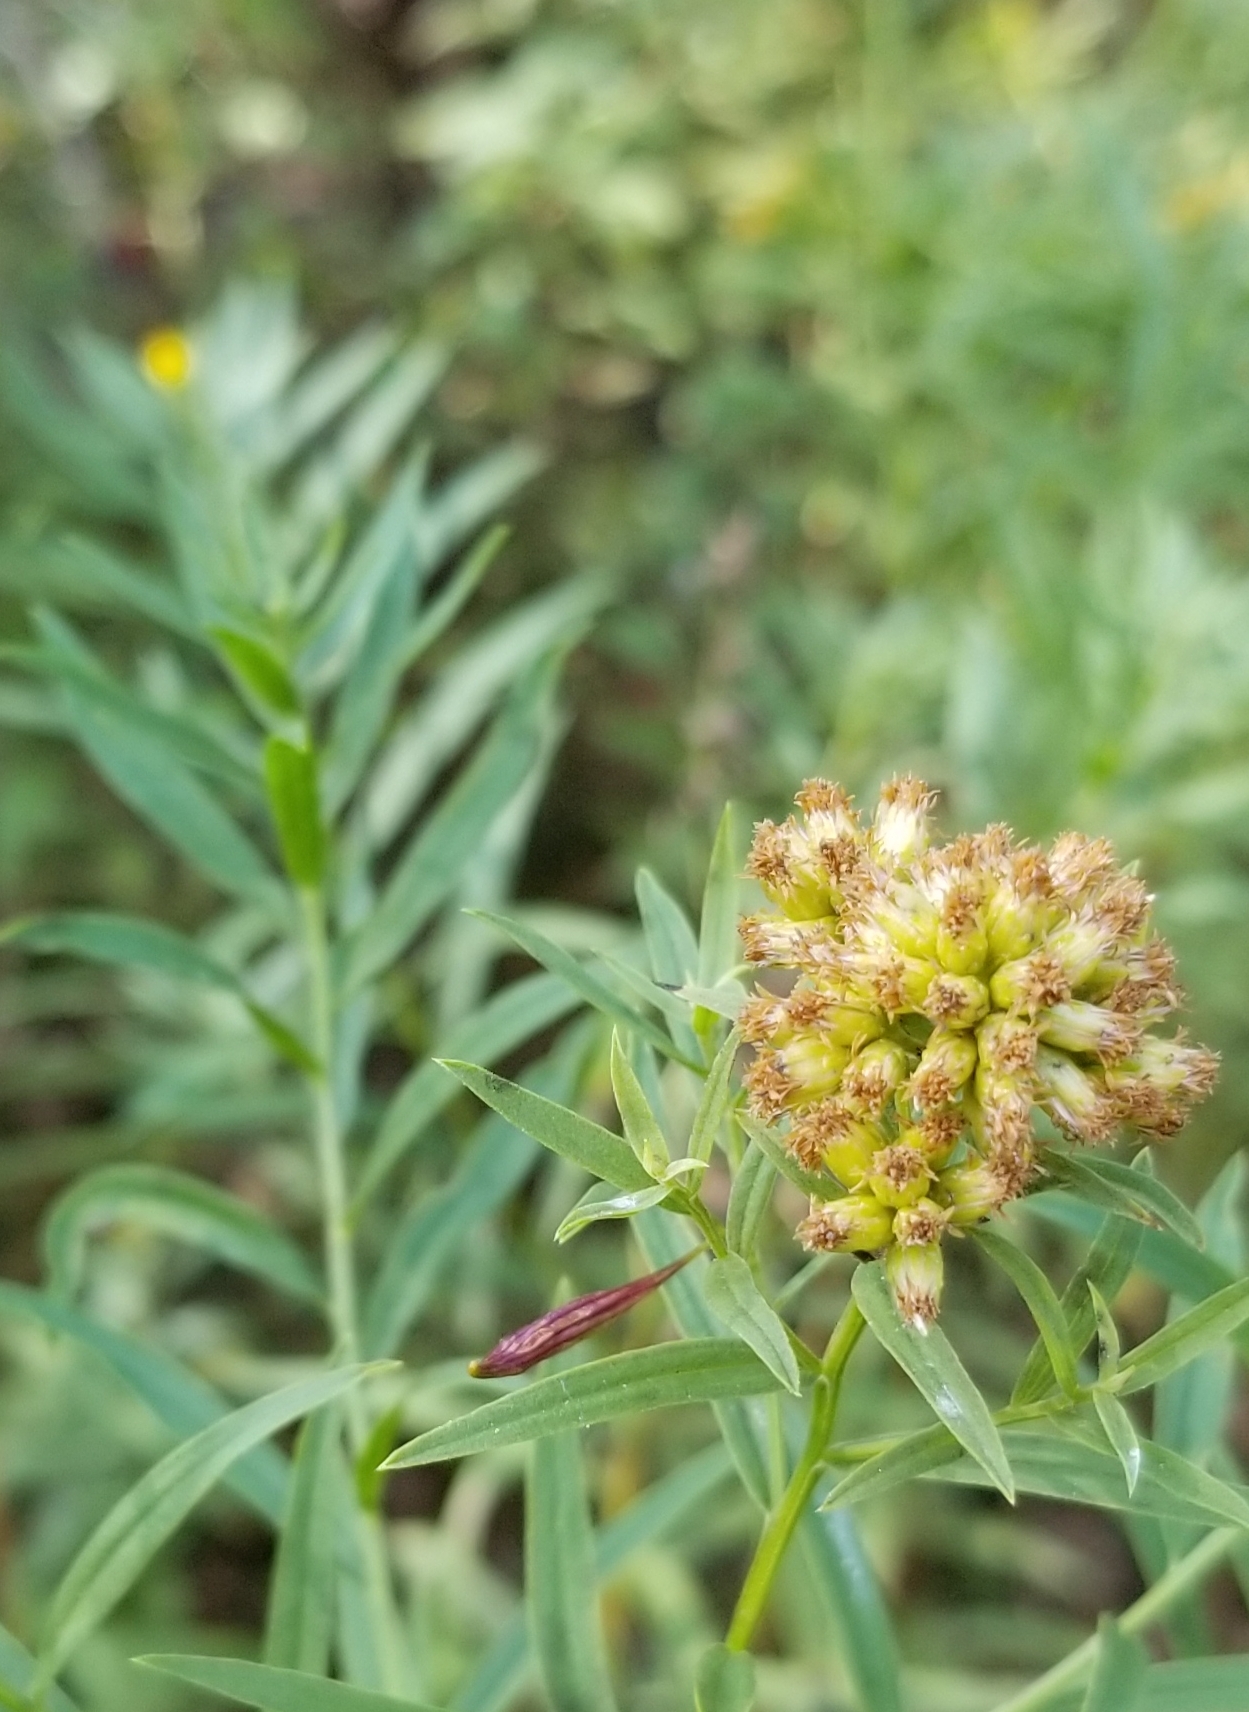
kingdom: Animalia
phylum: Arthropoda
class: Insecta
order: Diptera
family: Cecidomyiidae
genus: Rhopalomyia
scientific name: Rhopalomyia pedicellata
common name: Goldentop pedicellate gall midge
